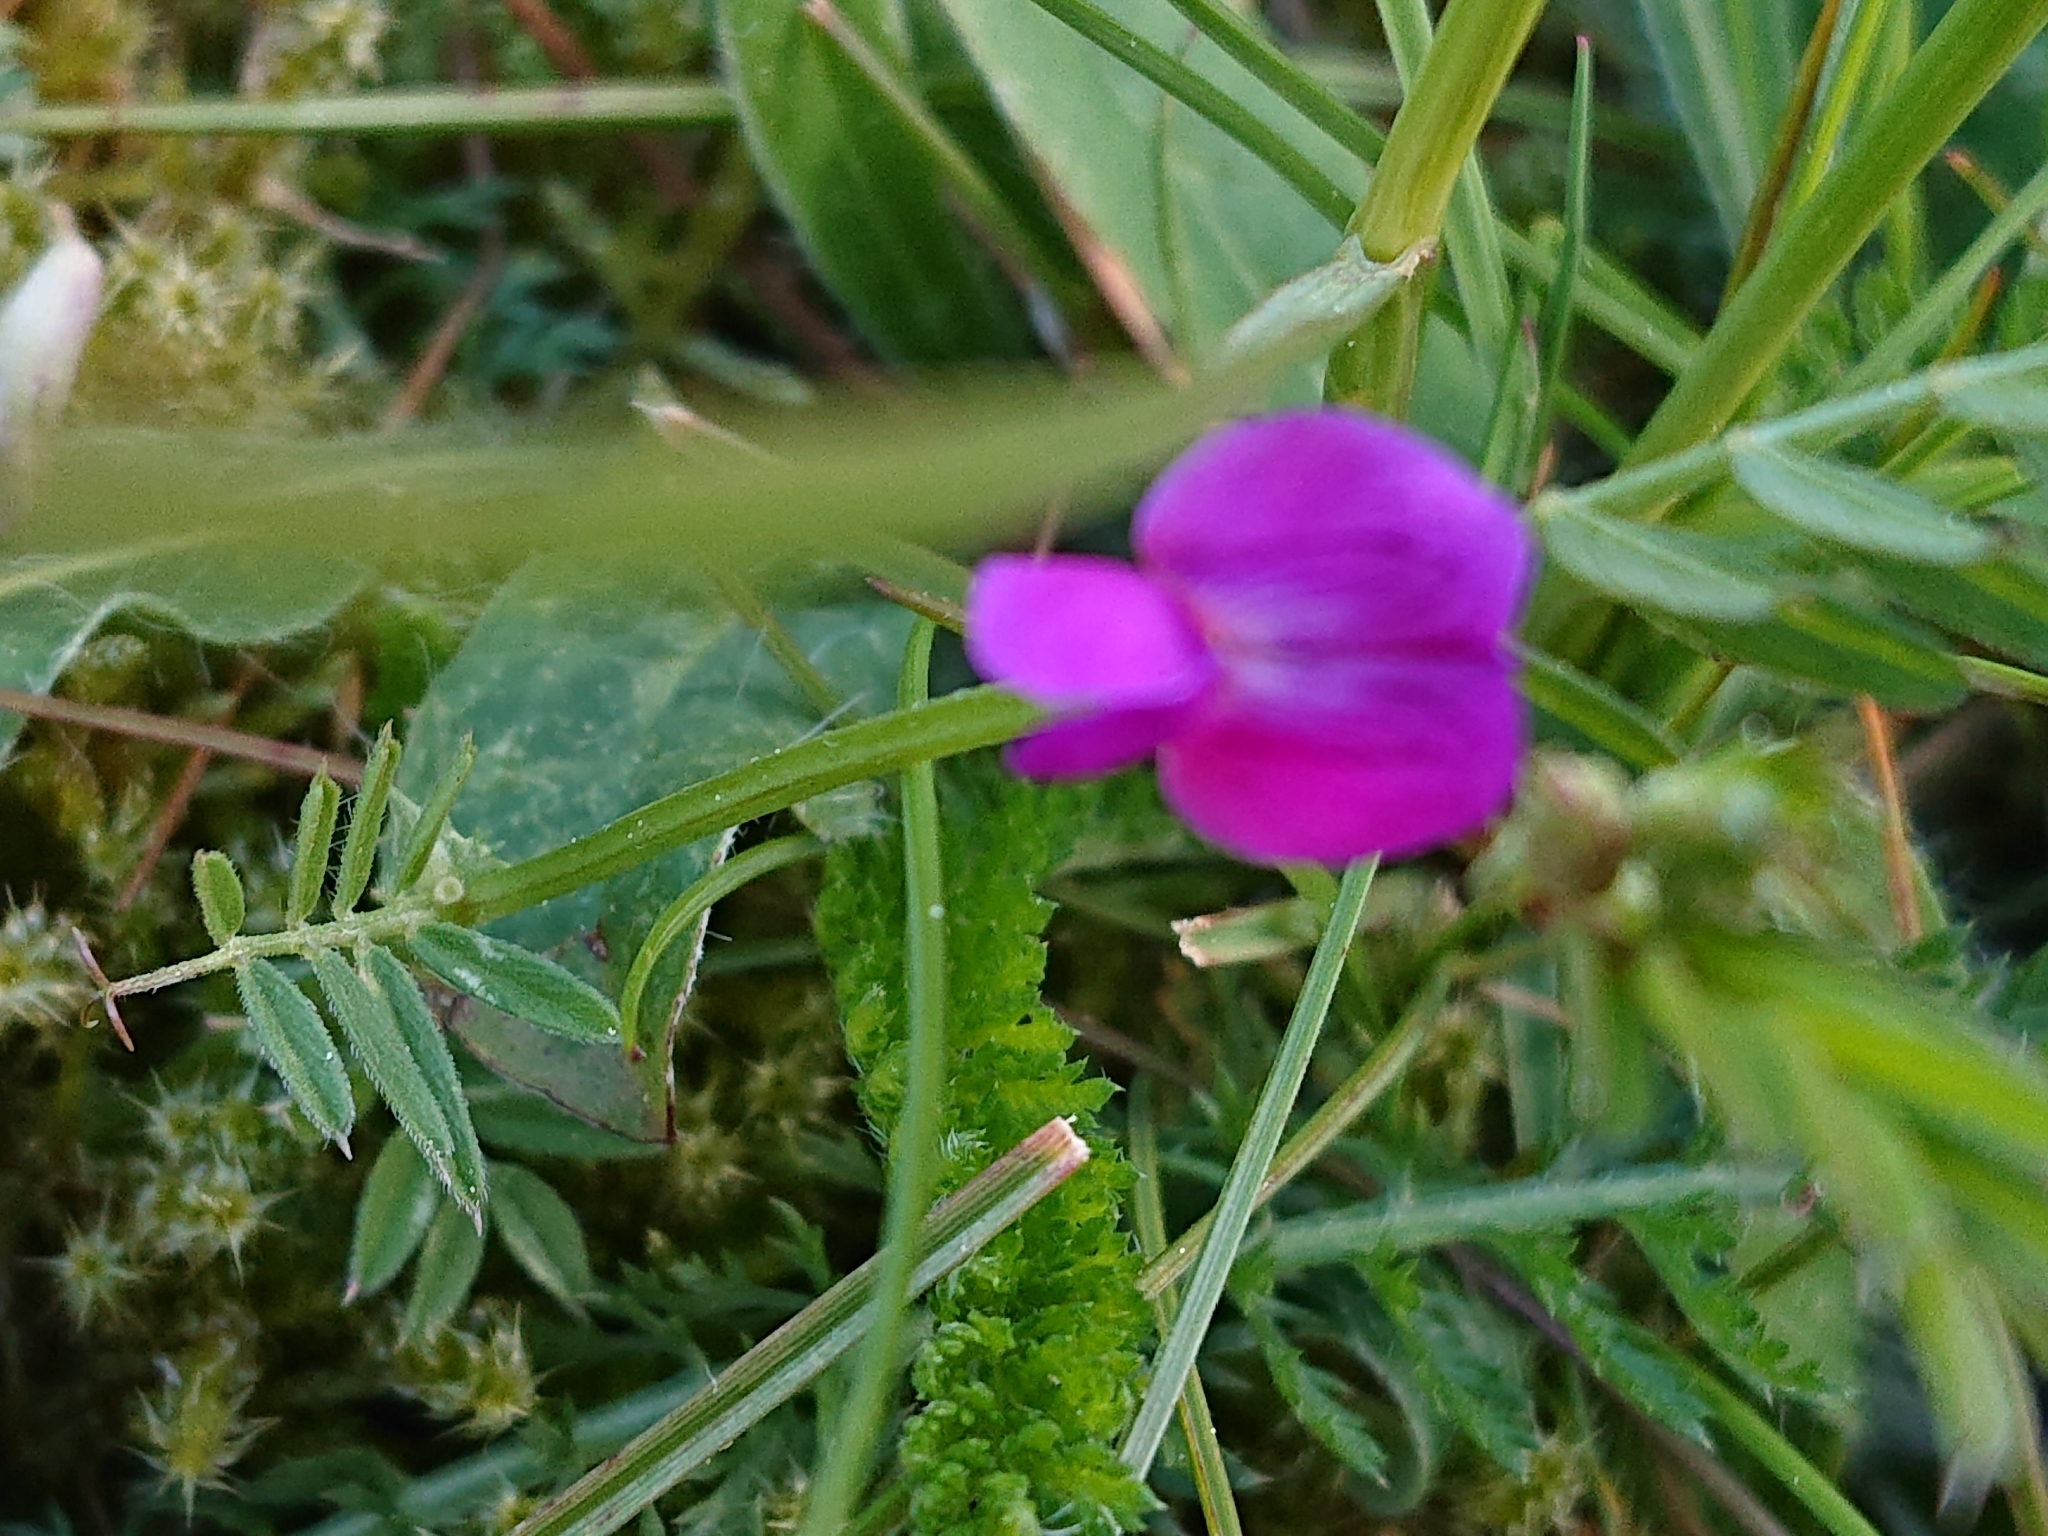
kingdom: Plantae
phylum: Tracheophyta
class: Magnoliopsida
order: Fabales
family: Fabaceae
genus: Vicia
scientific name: Vicia sativa
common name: Garden vetch
